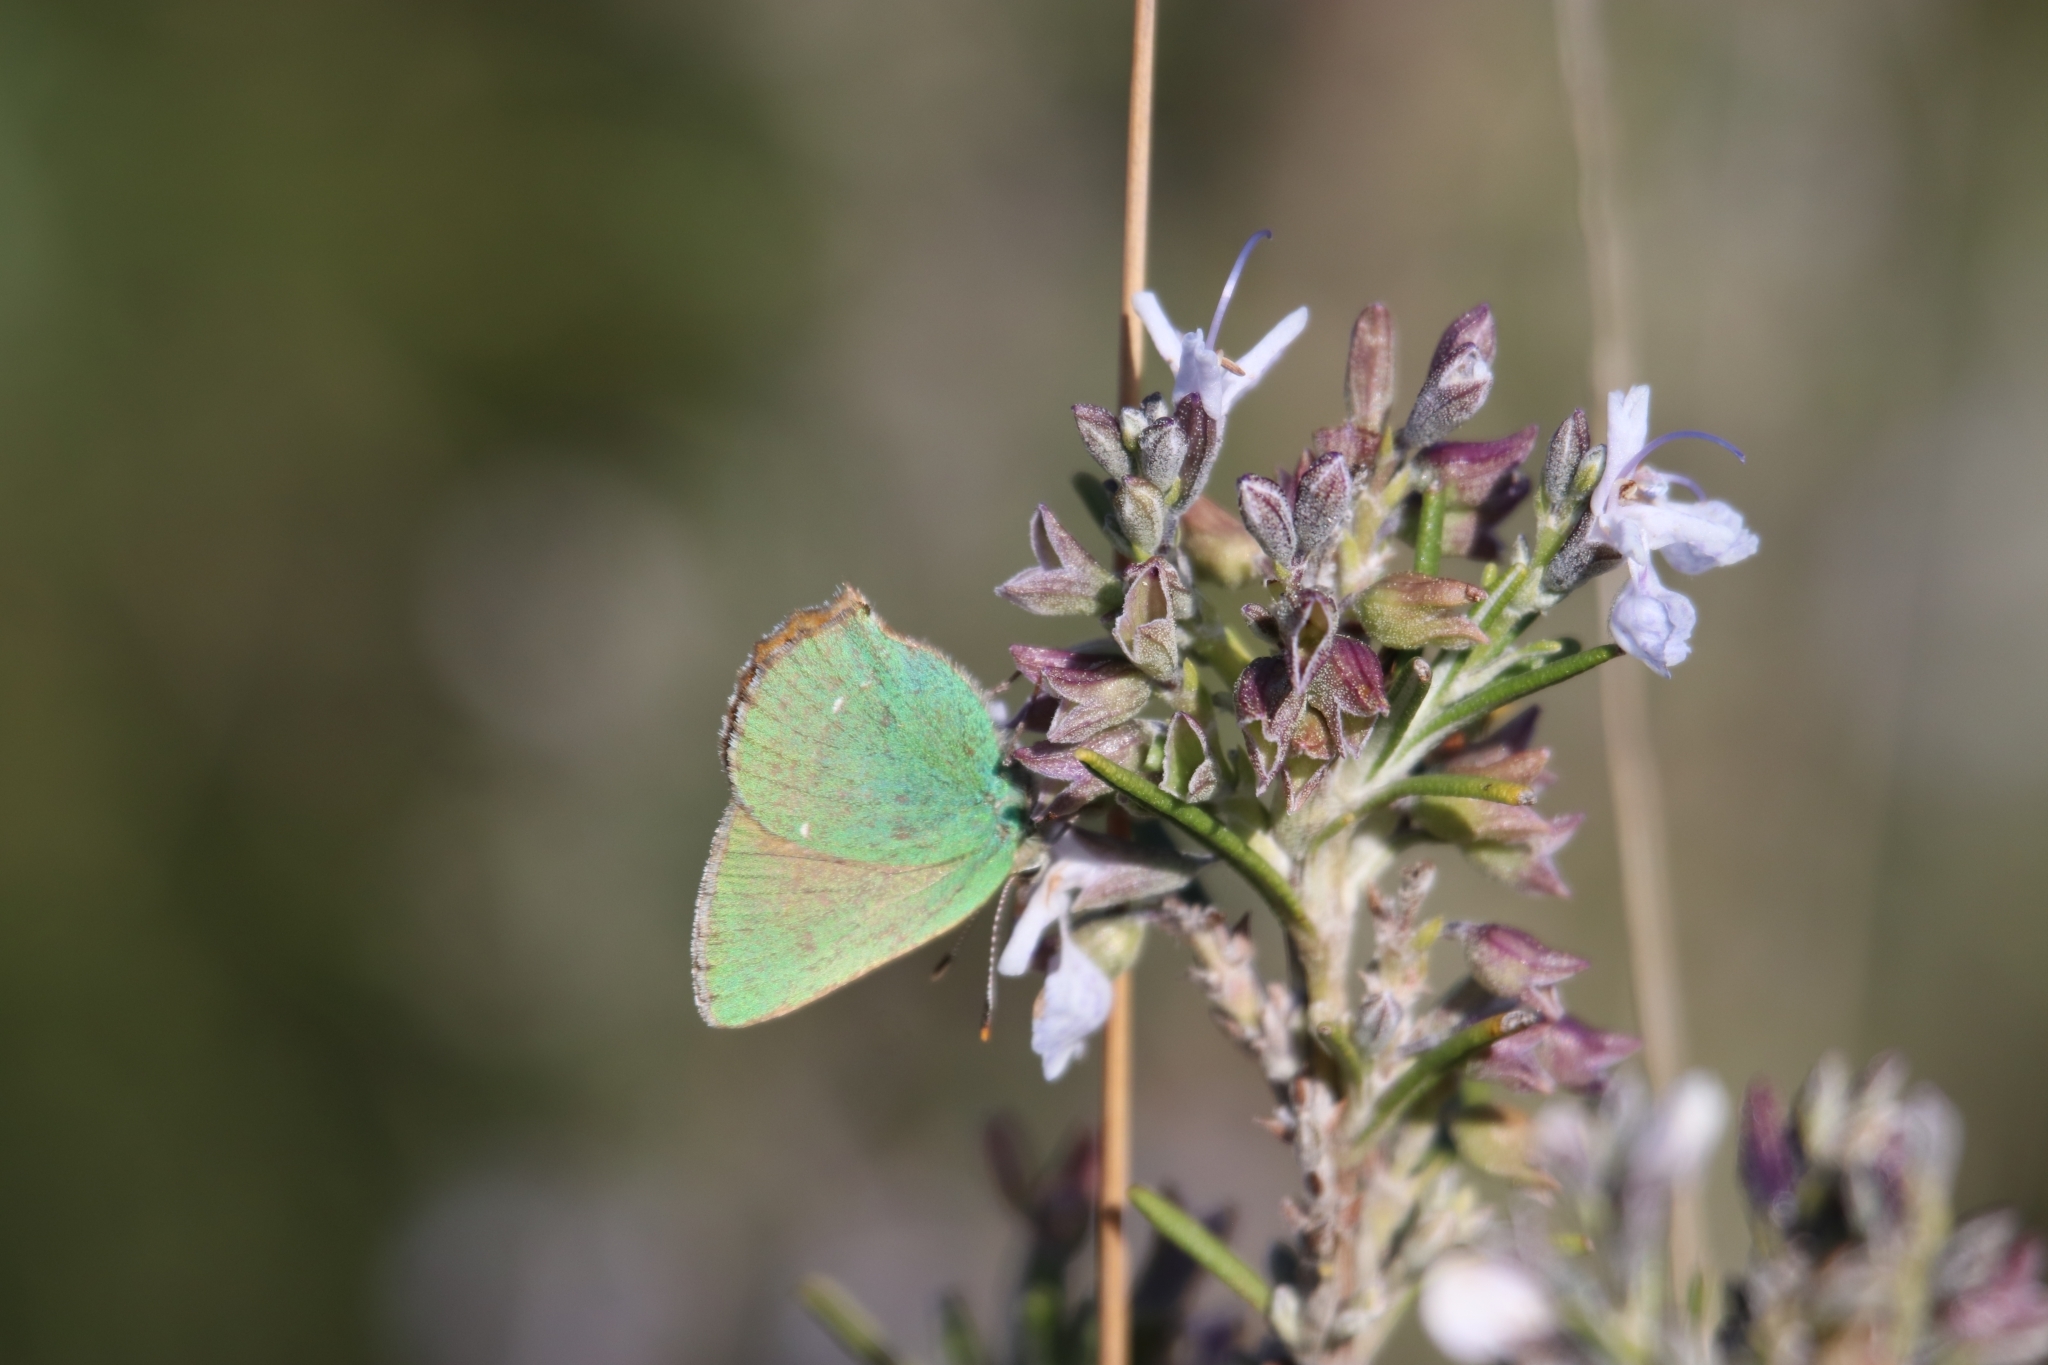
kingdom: Animalia
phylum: Arthropoda
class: Insecta
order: Lepidoptera
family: Lycaenidae
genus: Callophrys
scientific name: Callophrys rubi
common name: Green hairstreak
